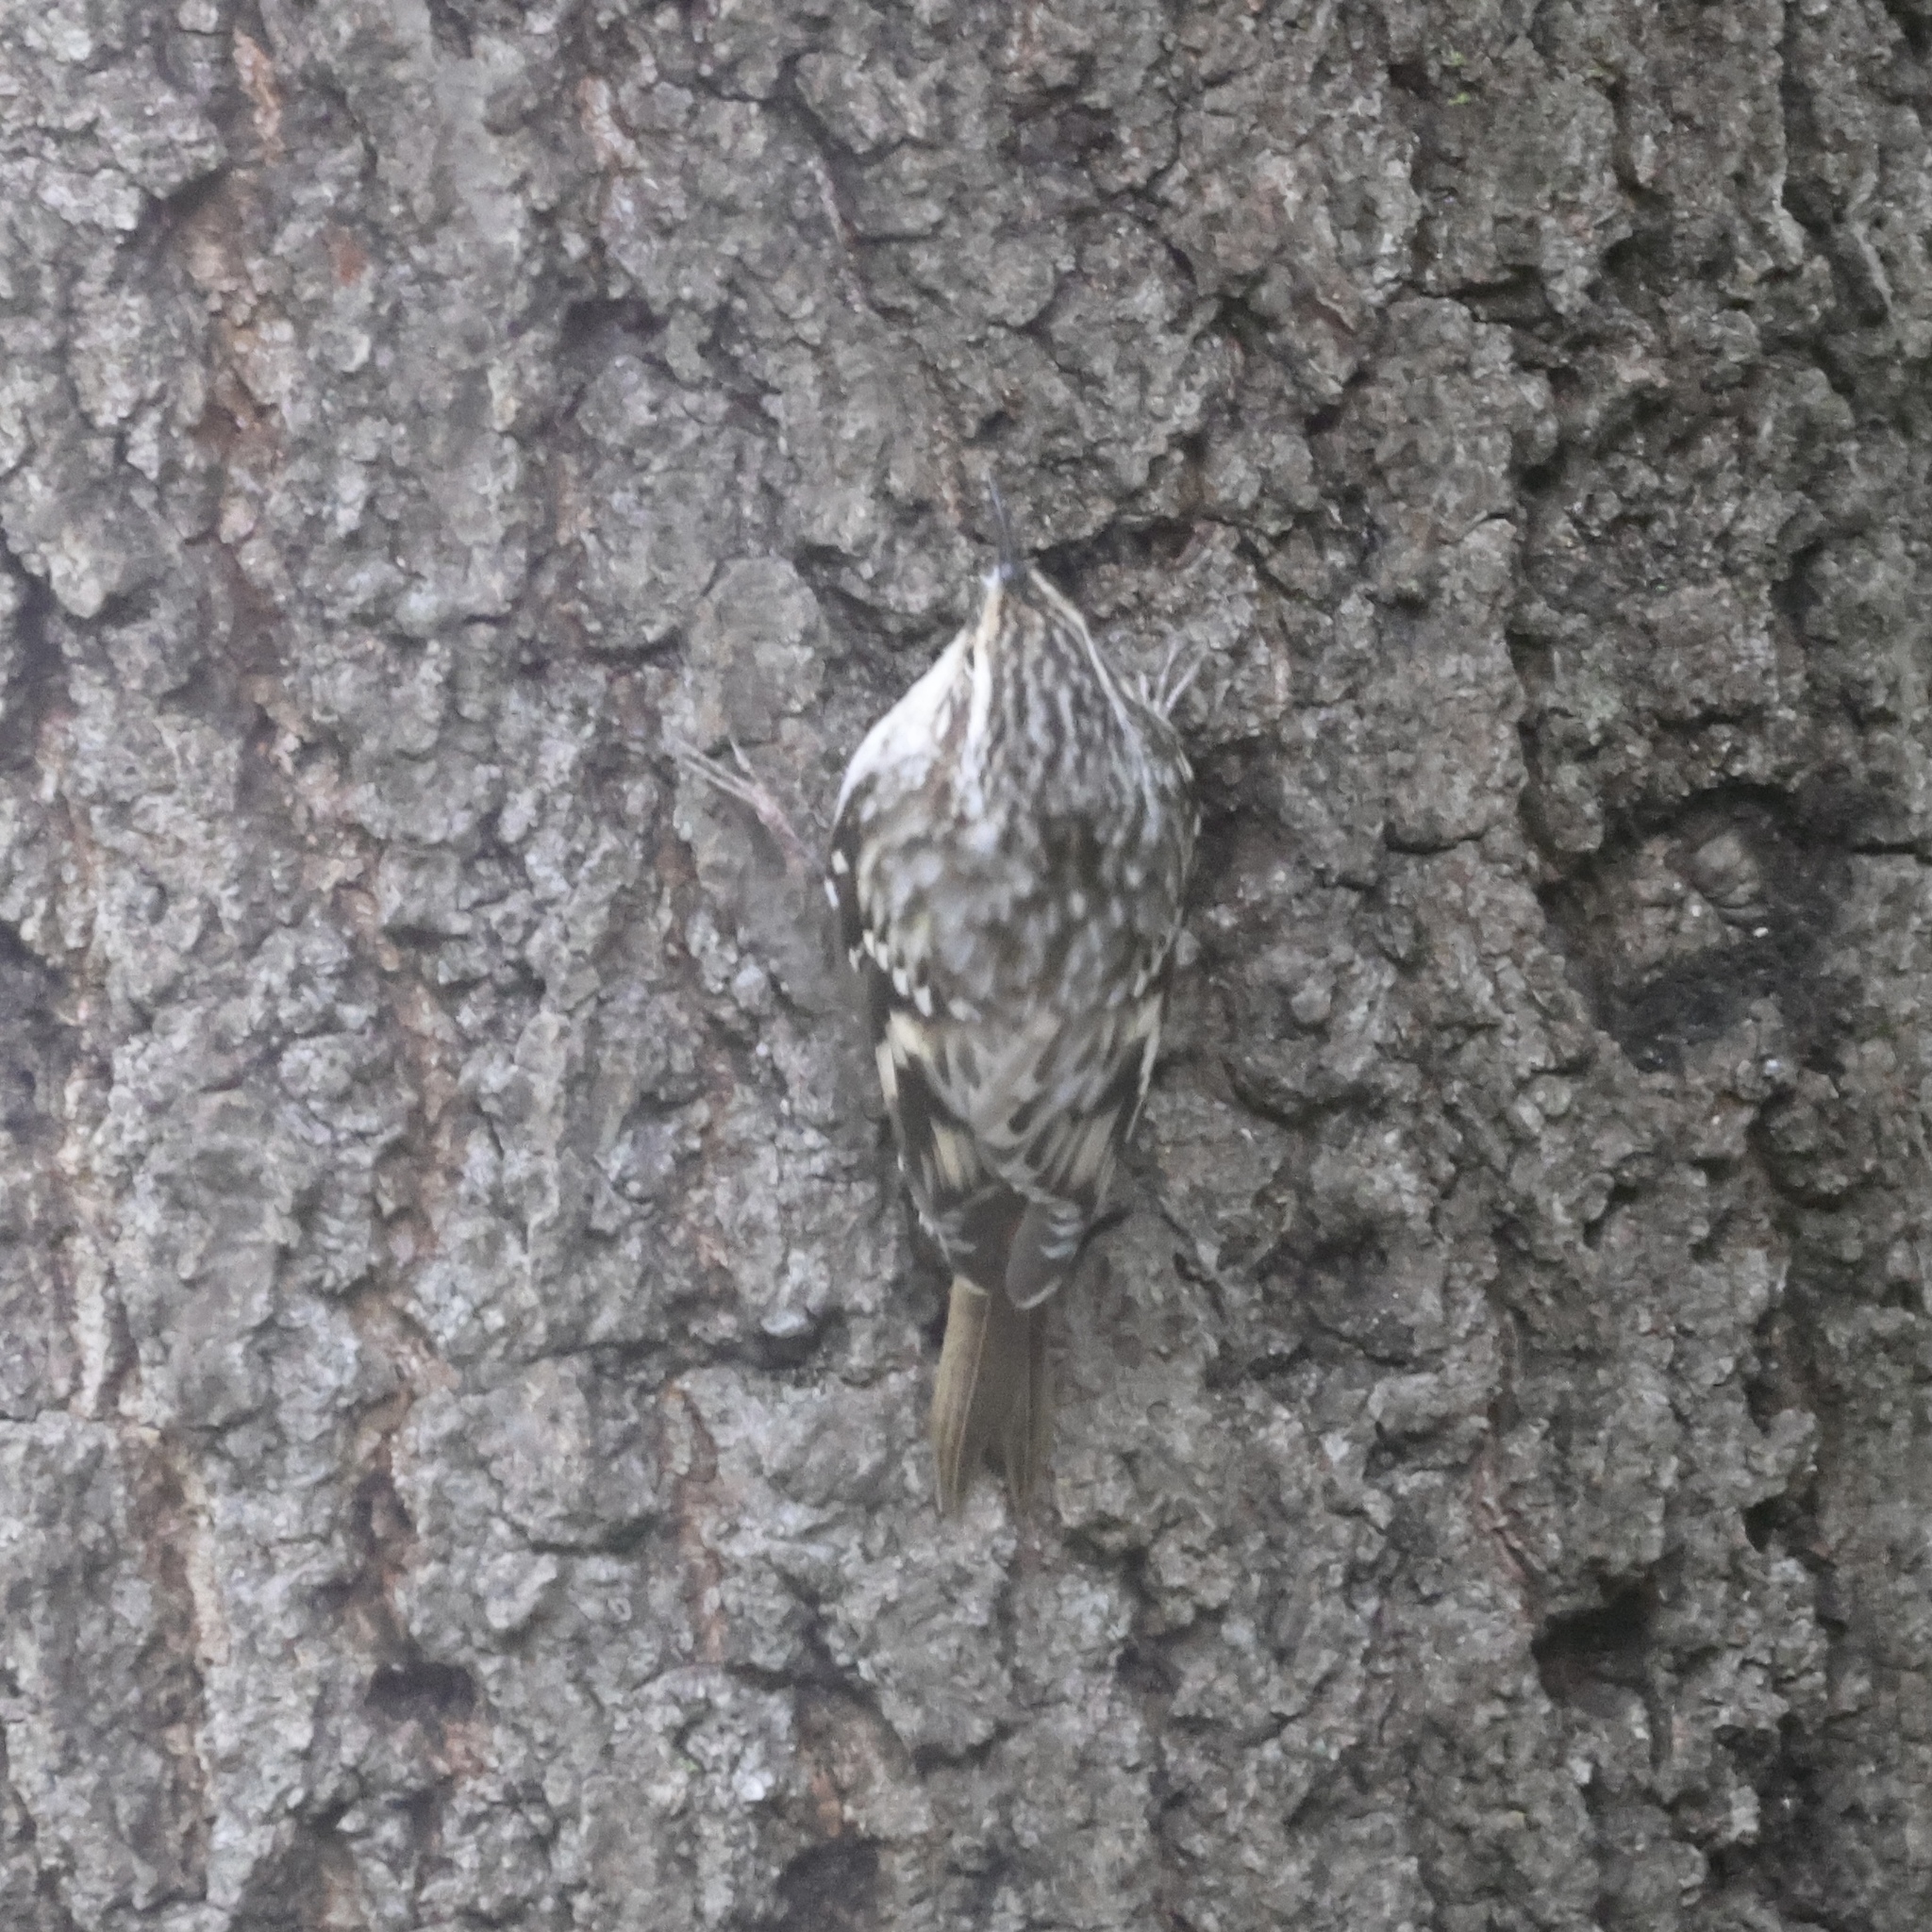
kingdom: Animalia
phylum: Chordata
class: Aves
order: Passeriformes
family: Certhiidae
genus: Certhia
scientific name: Certhia americana
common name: Brown creeper
